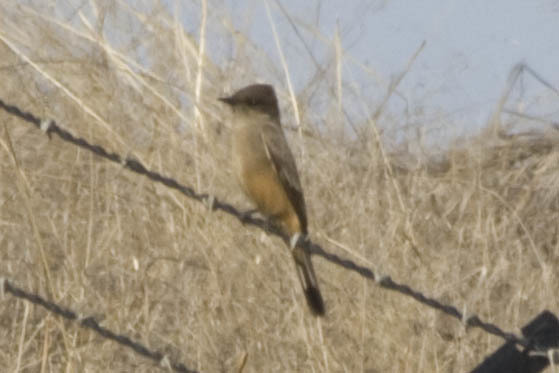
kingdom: Animalia
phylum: Chordata
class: Aves
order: Passeriformes
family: Tyrannidae
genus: Sayornis
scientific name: Sayornis saya
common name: Say's phoebe
